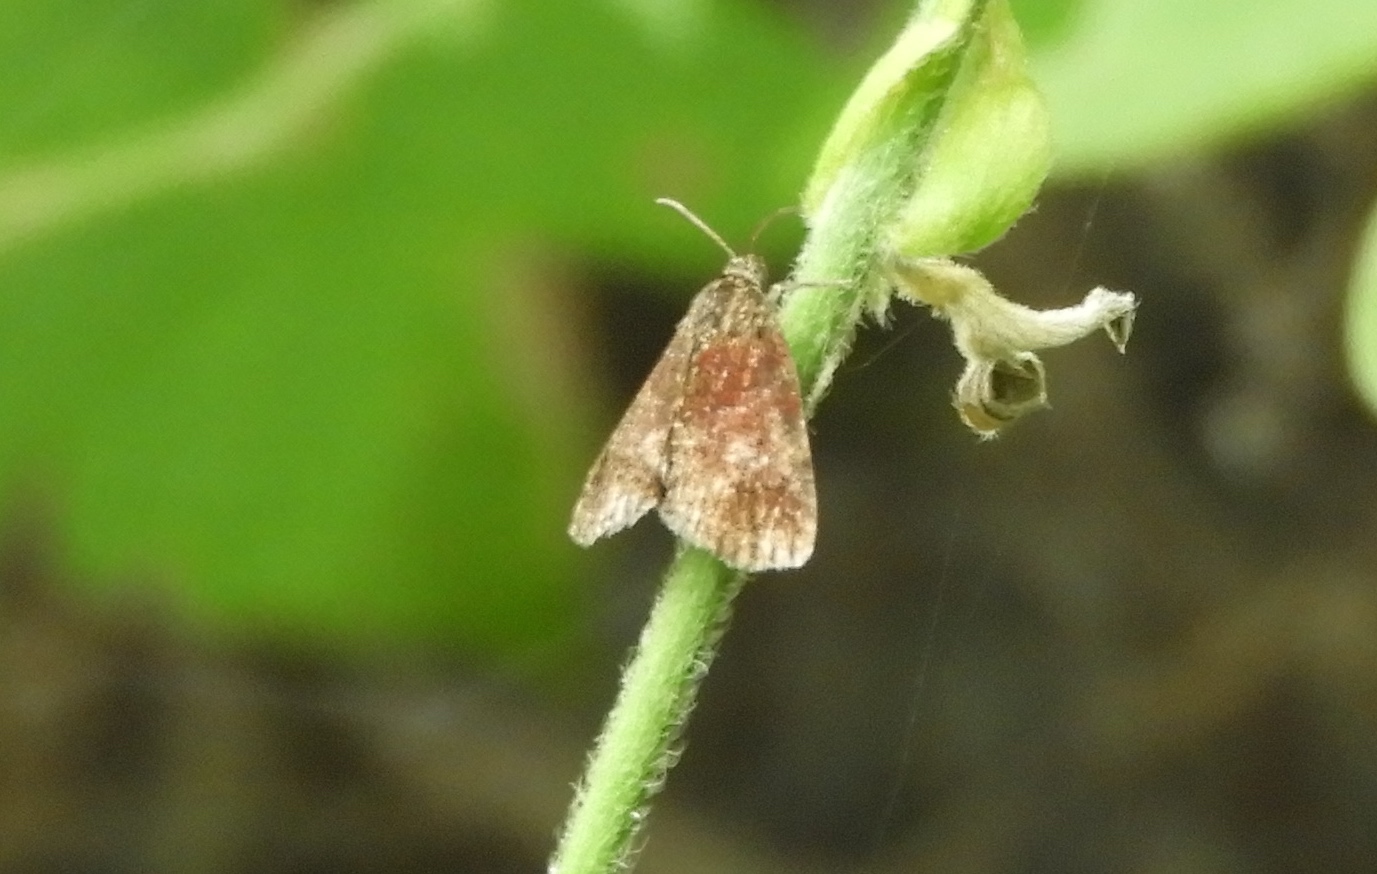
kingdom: Animalia
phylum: Arthropoda
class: Insecta
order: Lepidoptera
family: Choreutidae
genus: Anthophila
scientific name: Anthophila
